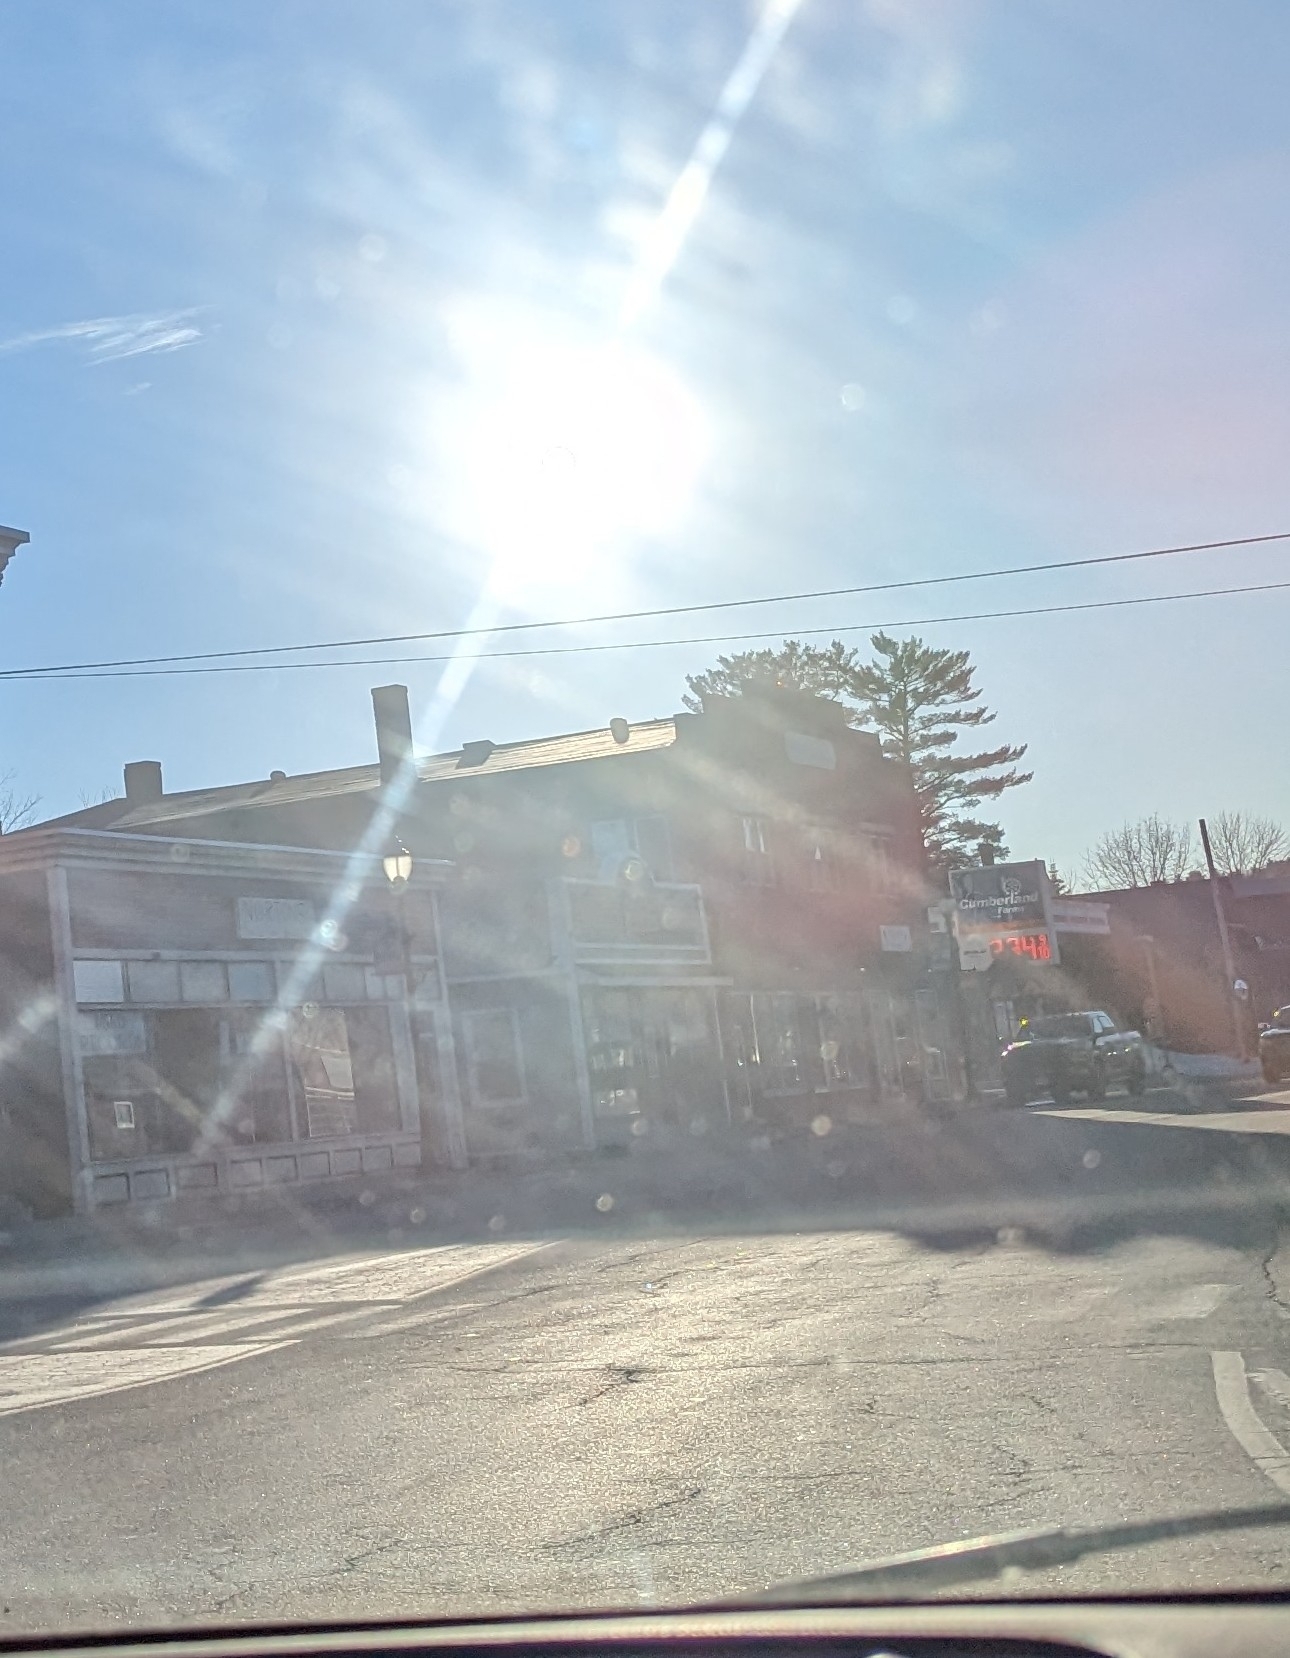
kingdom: Plantae
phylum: Tracheophyta
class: Pinopsida
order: Pinales
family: Pinaceae
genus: Pinus
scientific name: Pinus strobus
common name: Weymouth pine
